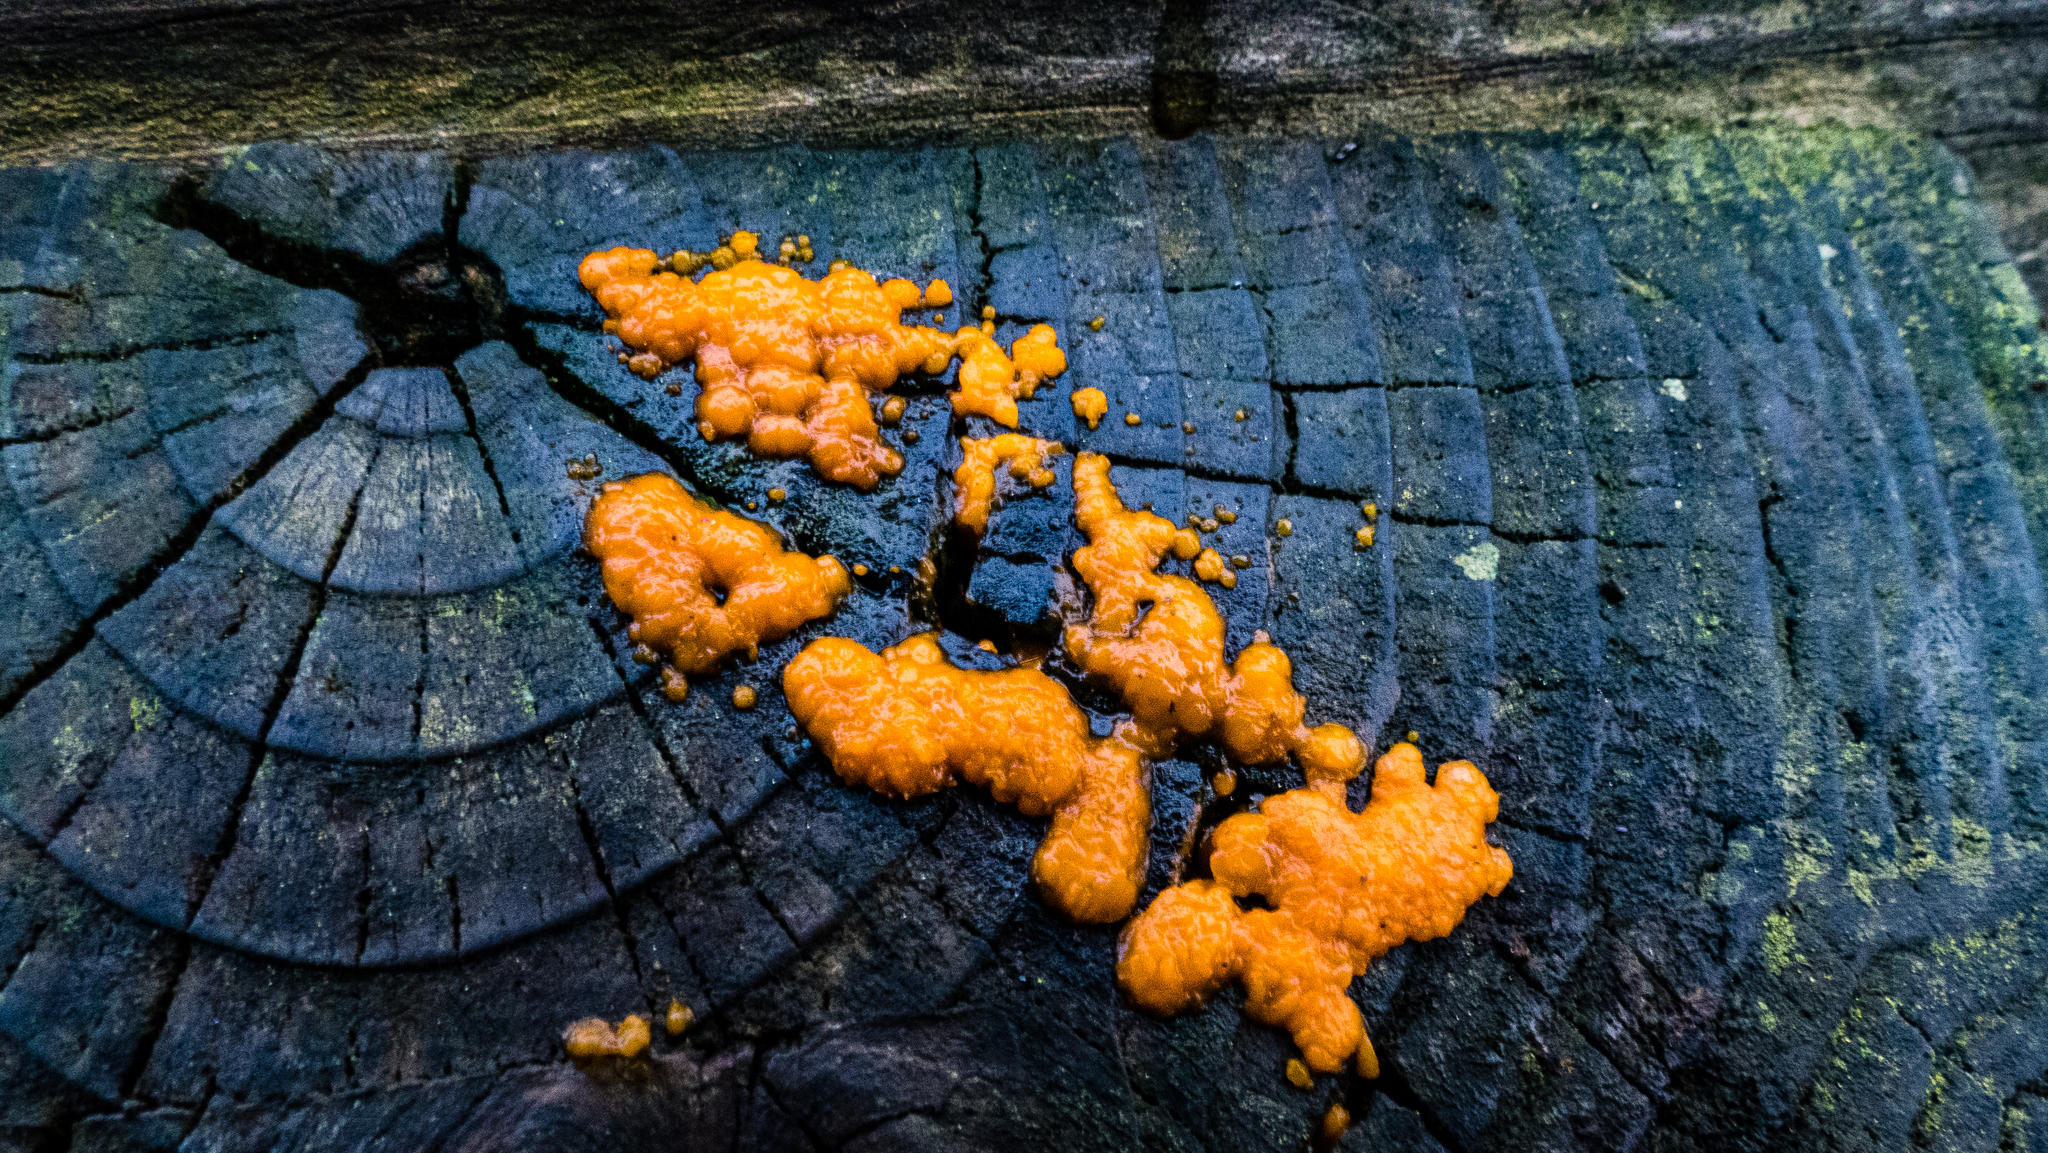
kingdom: Fungi
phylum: Basidiomycota
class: Dacrymycetes
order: Dacrymycetales
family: Dacrymycetaceae
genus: Dacrymyces
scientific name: Dacrymyces stillatus
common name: Common jelly spot
